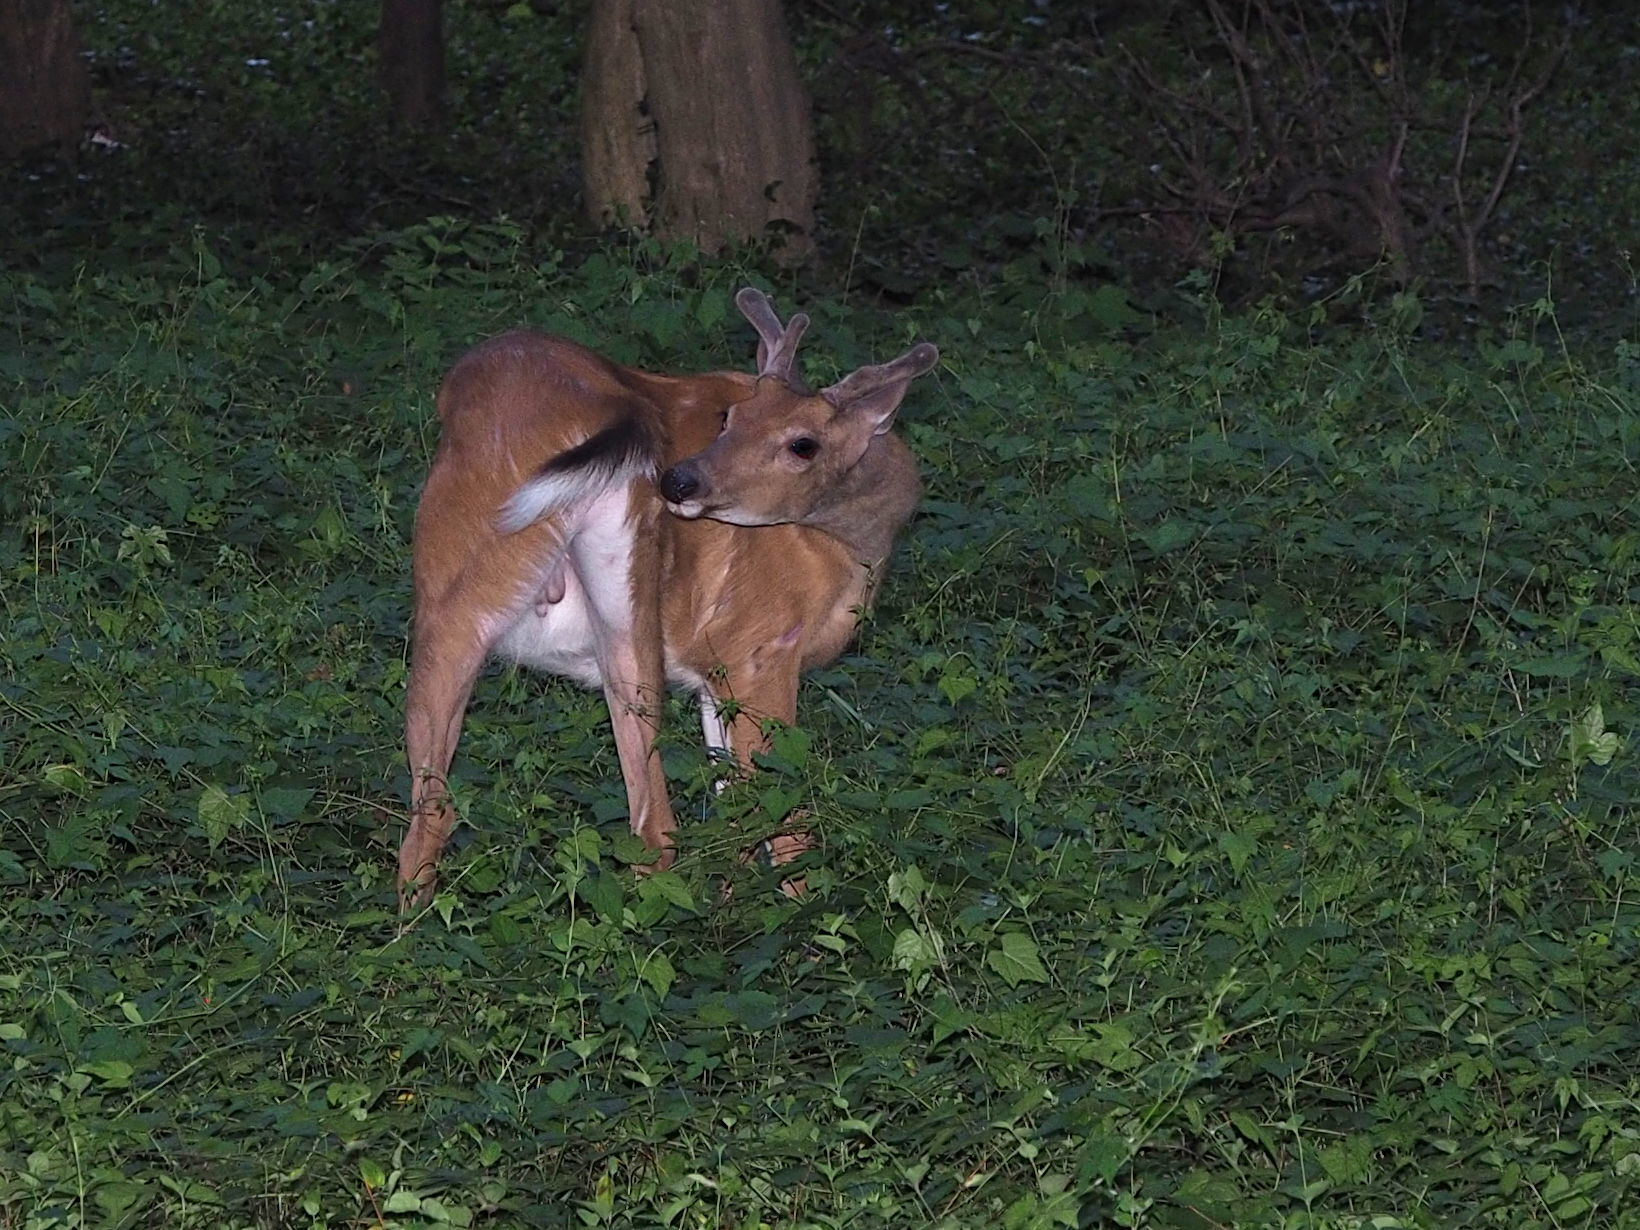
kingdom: Animalia
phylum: Chordata
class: Mammalia
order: Artiodactyla
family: Cervidae
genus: Odocoileus
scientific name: Odocoileus virginianus
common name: White-tailed deer
